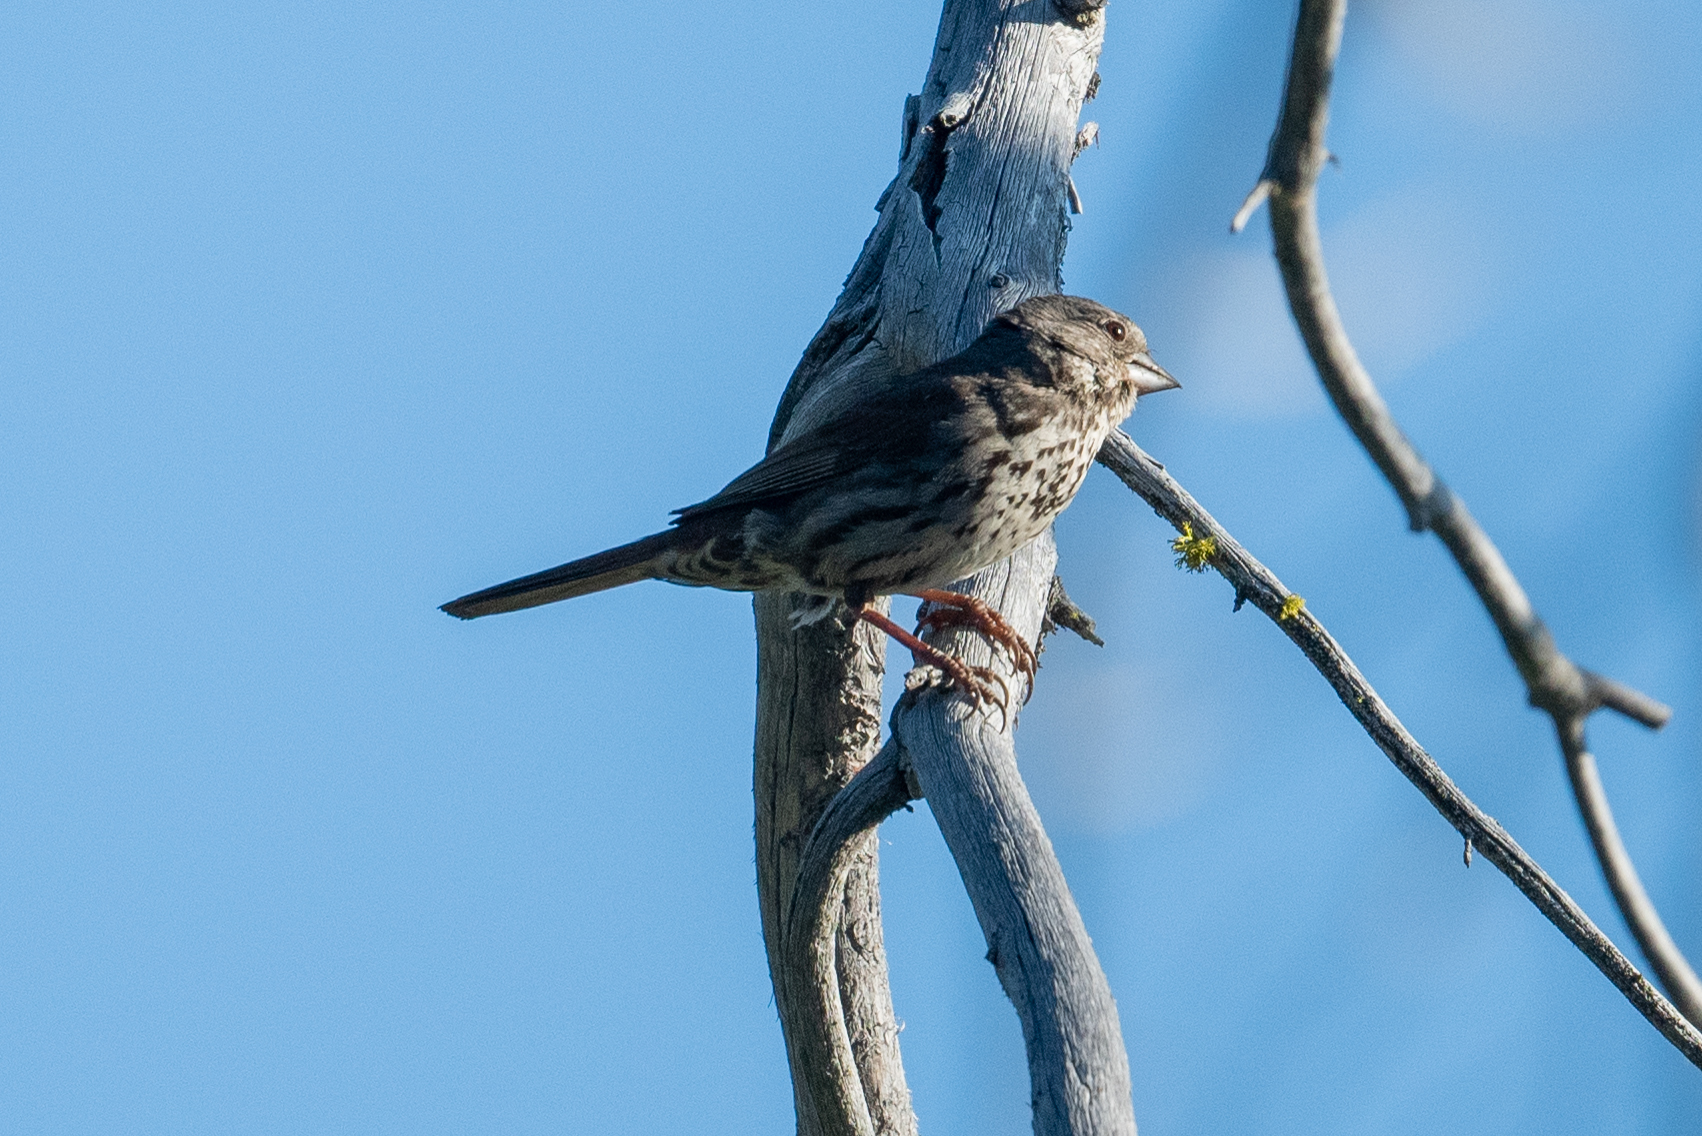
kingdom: Animalia
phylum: Chordata
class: Aves
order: Passeriformes
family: Passerellidae
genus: Passerella
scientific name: Passerella iliaca
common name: Fox sparrow
